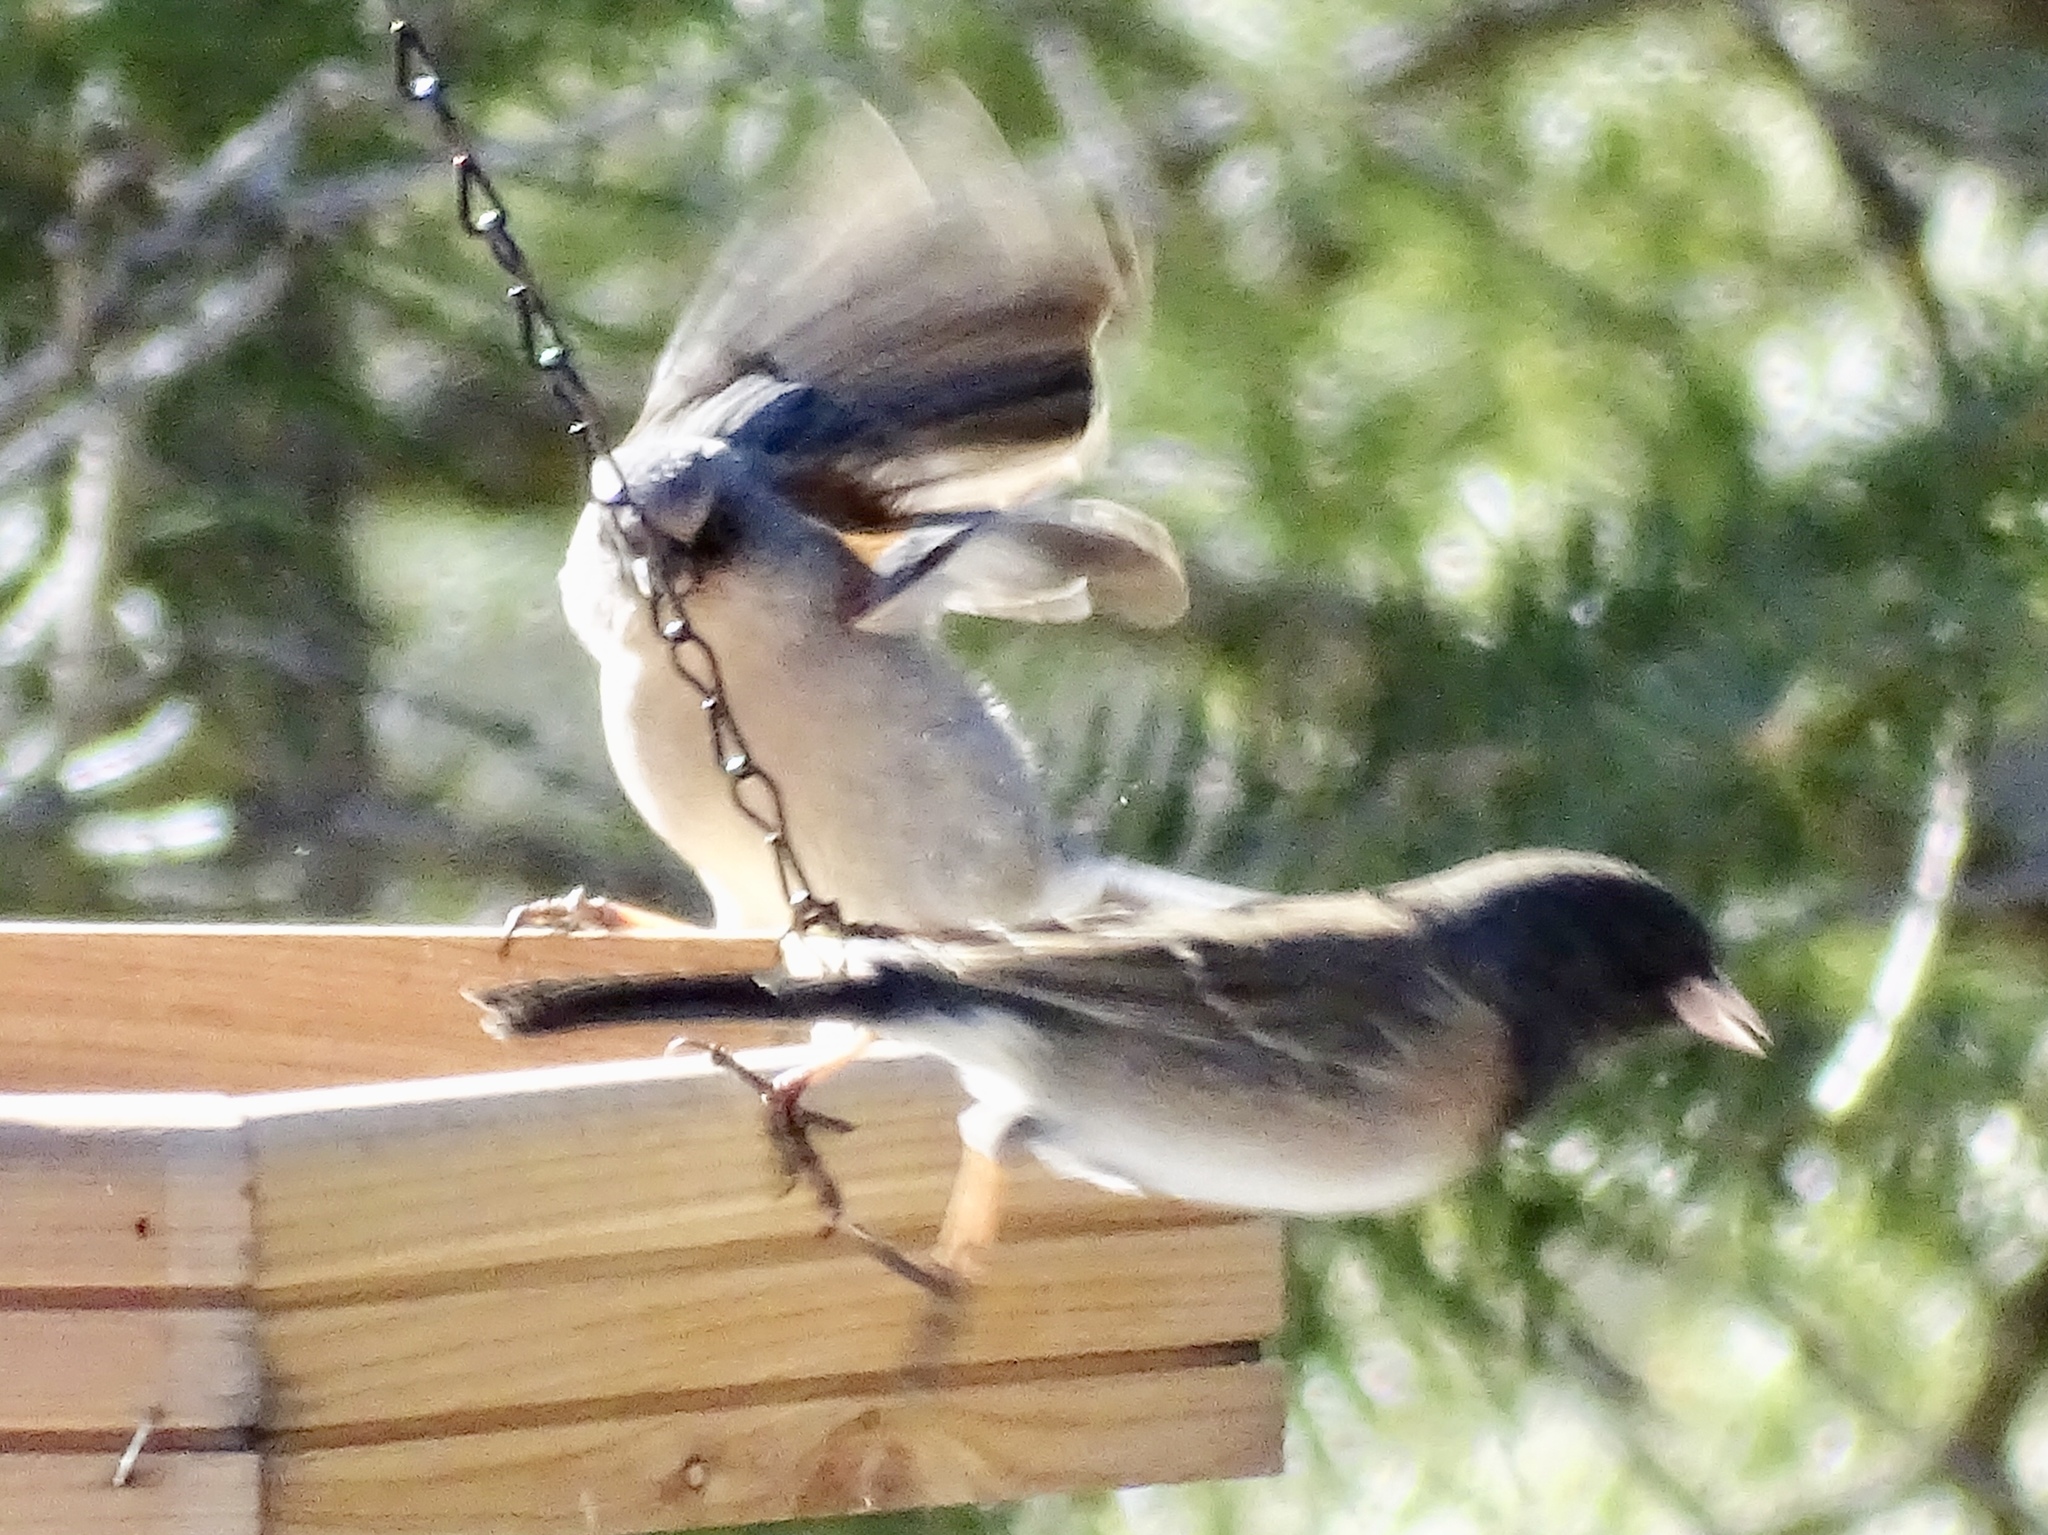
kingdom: Animalia
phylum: Chordata
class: Aves
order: Passeriformes
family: Passerellidae
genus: Junco
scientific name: Junco hyemalis
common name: Dark-eyed junco
